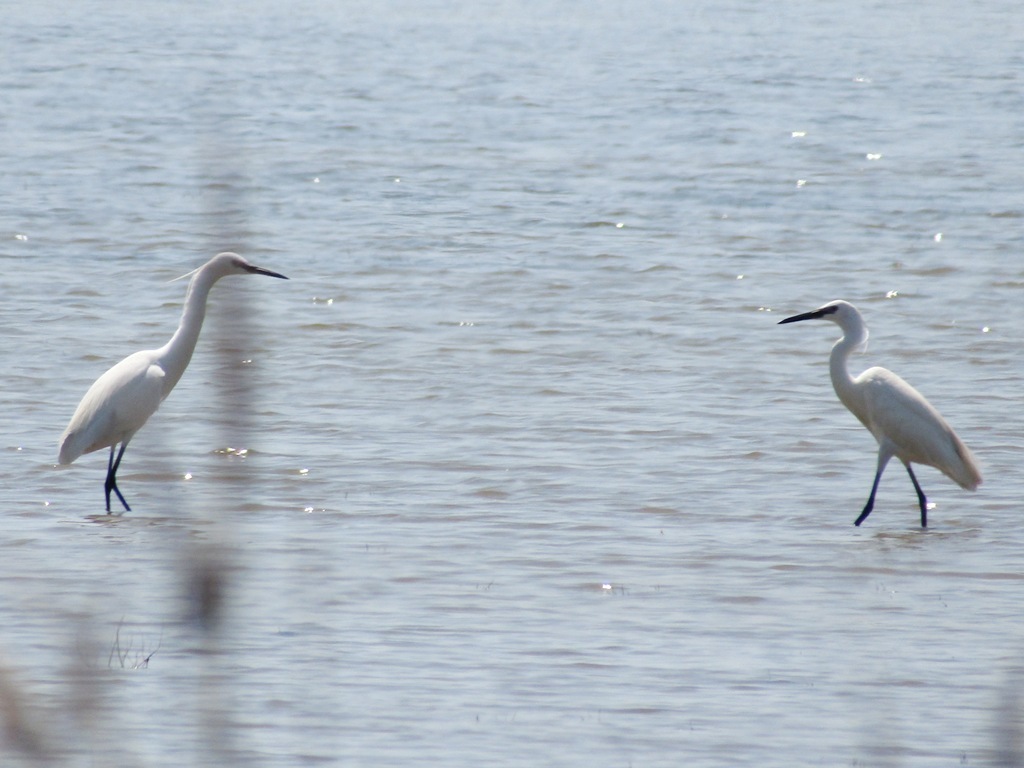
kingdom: Animalia
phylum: Chordata
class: Aves
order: Pelecaniformes
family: Ardeidae
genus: Egretta
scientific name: Egretta garzetta
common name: Little egret
